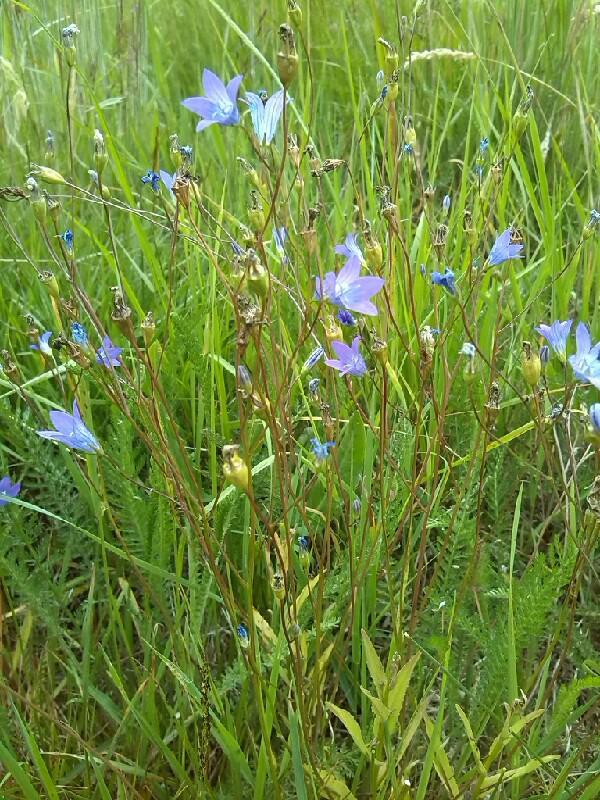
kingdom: Plantae
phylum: Tracheophyta
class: Magnoliopsida
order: Asterales
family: Campanulaceae
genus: Campanula
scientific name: Campanula patula
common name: Spreading bellflower
